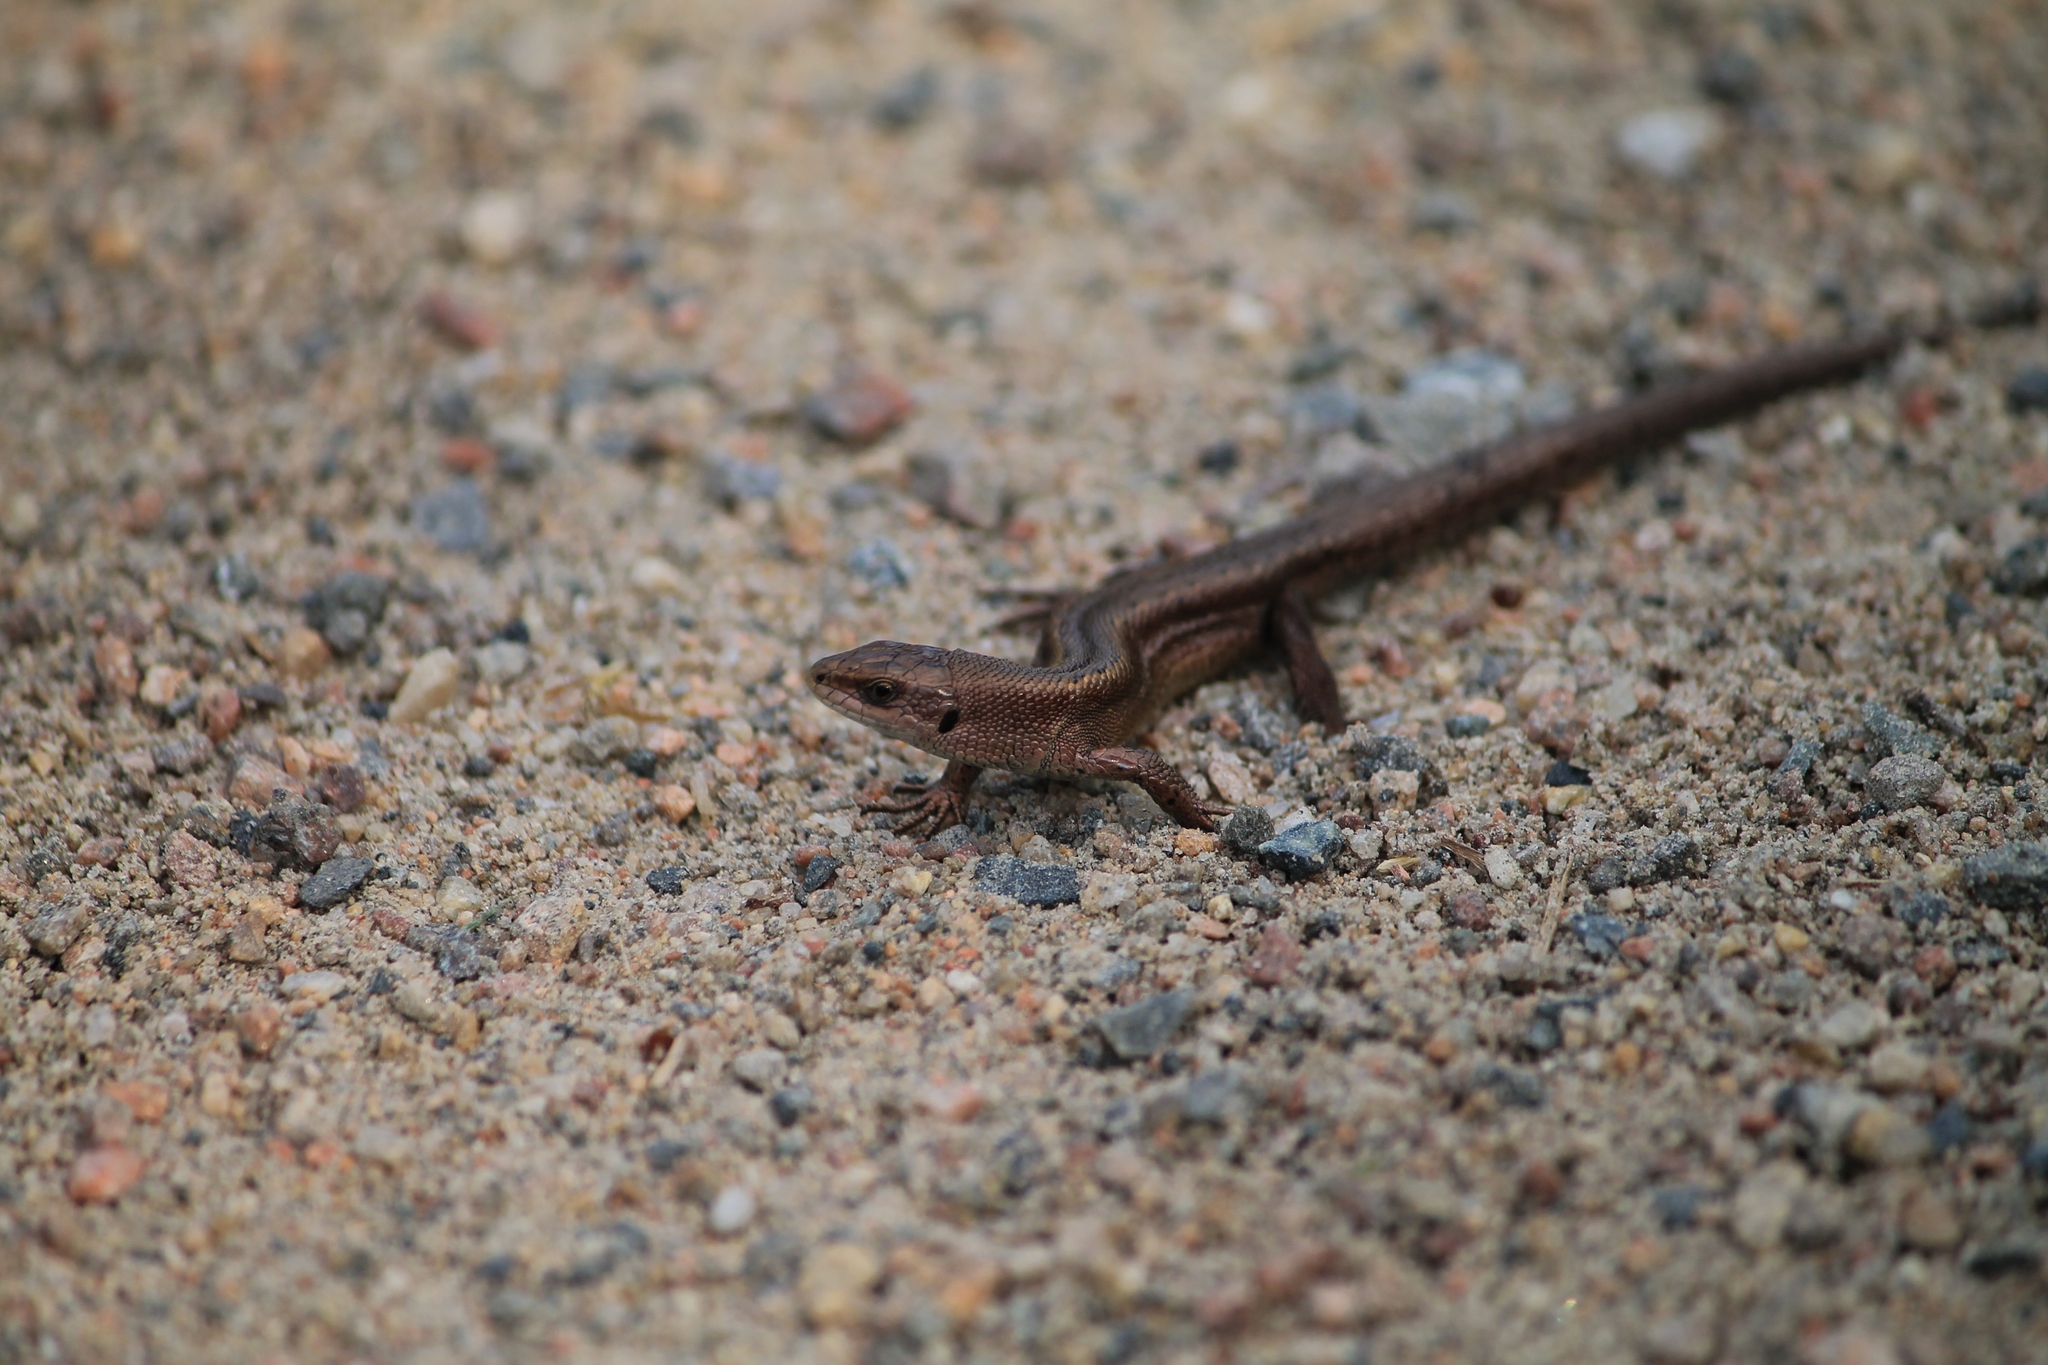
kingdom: Animalia
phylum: Chordata
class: Squamata
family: Lacertidae
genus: Zootoca
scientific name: Zootoca vivipara
